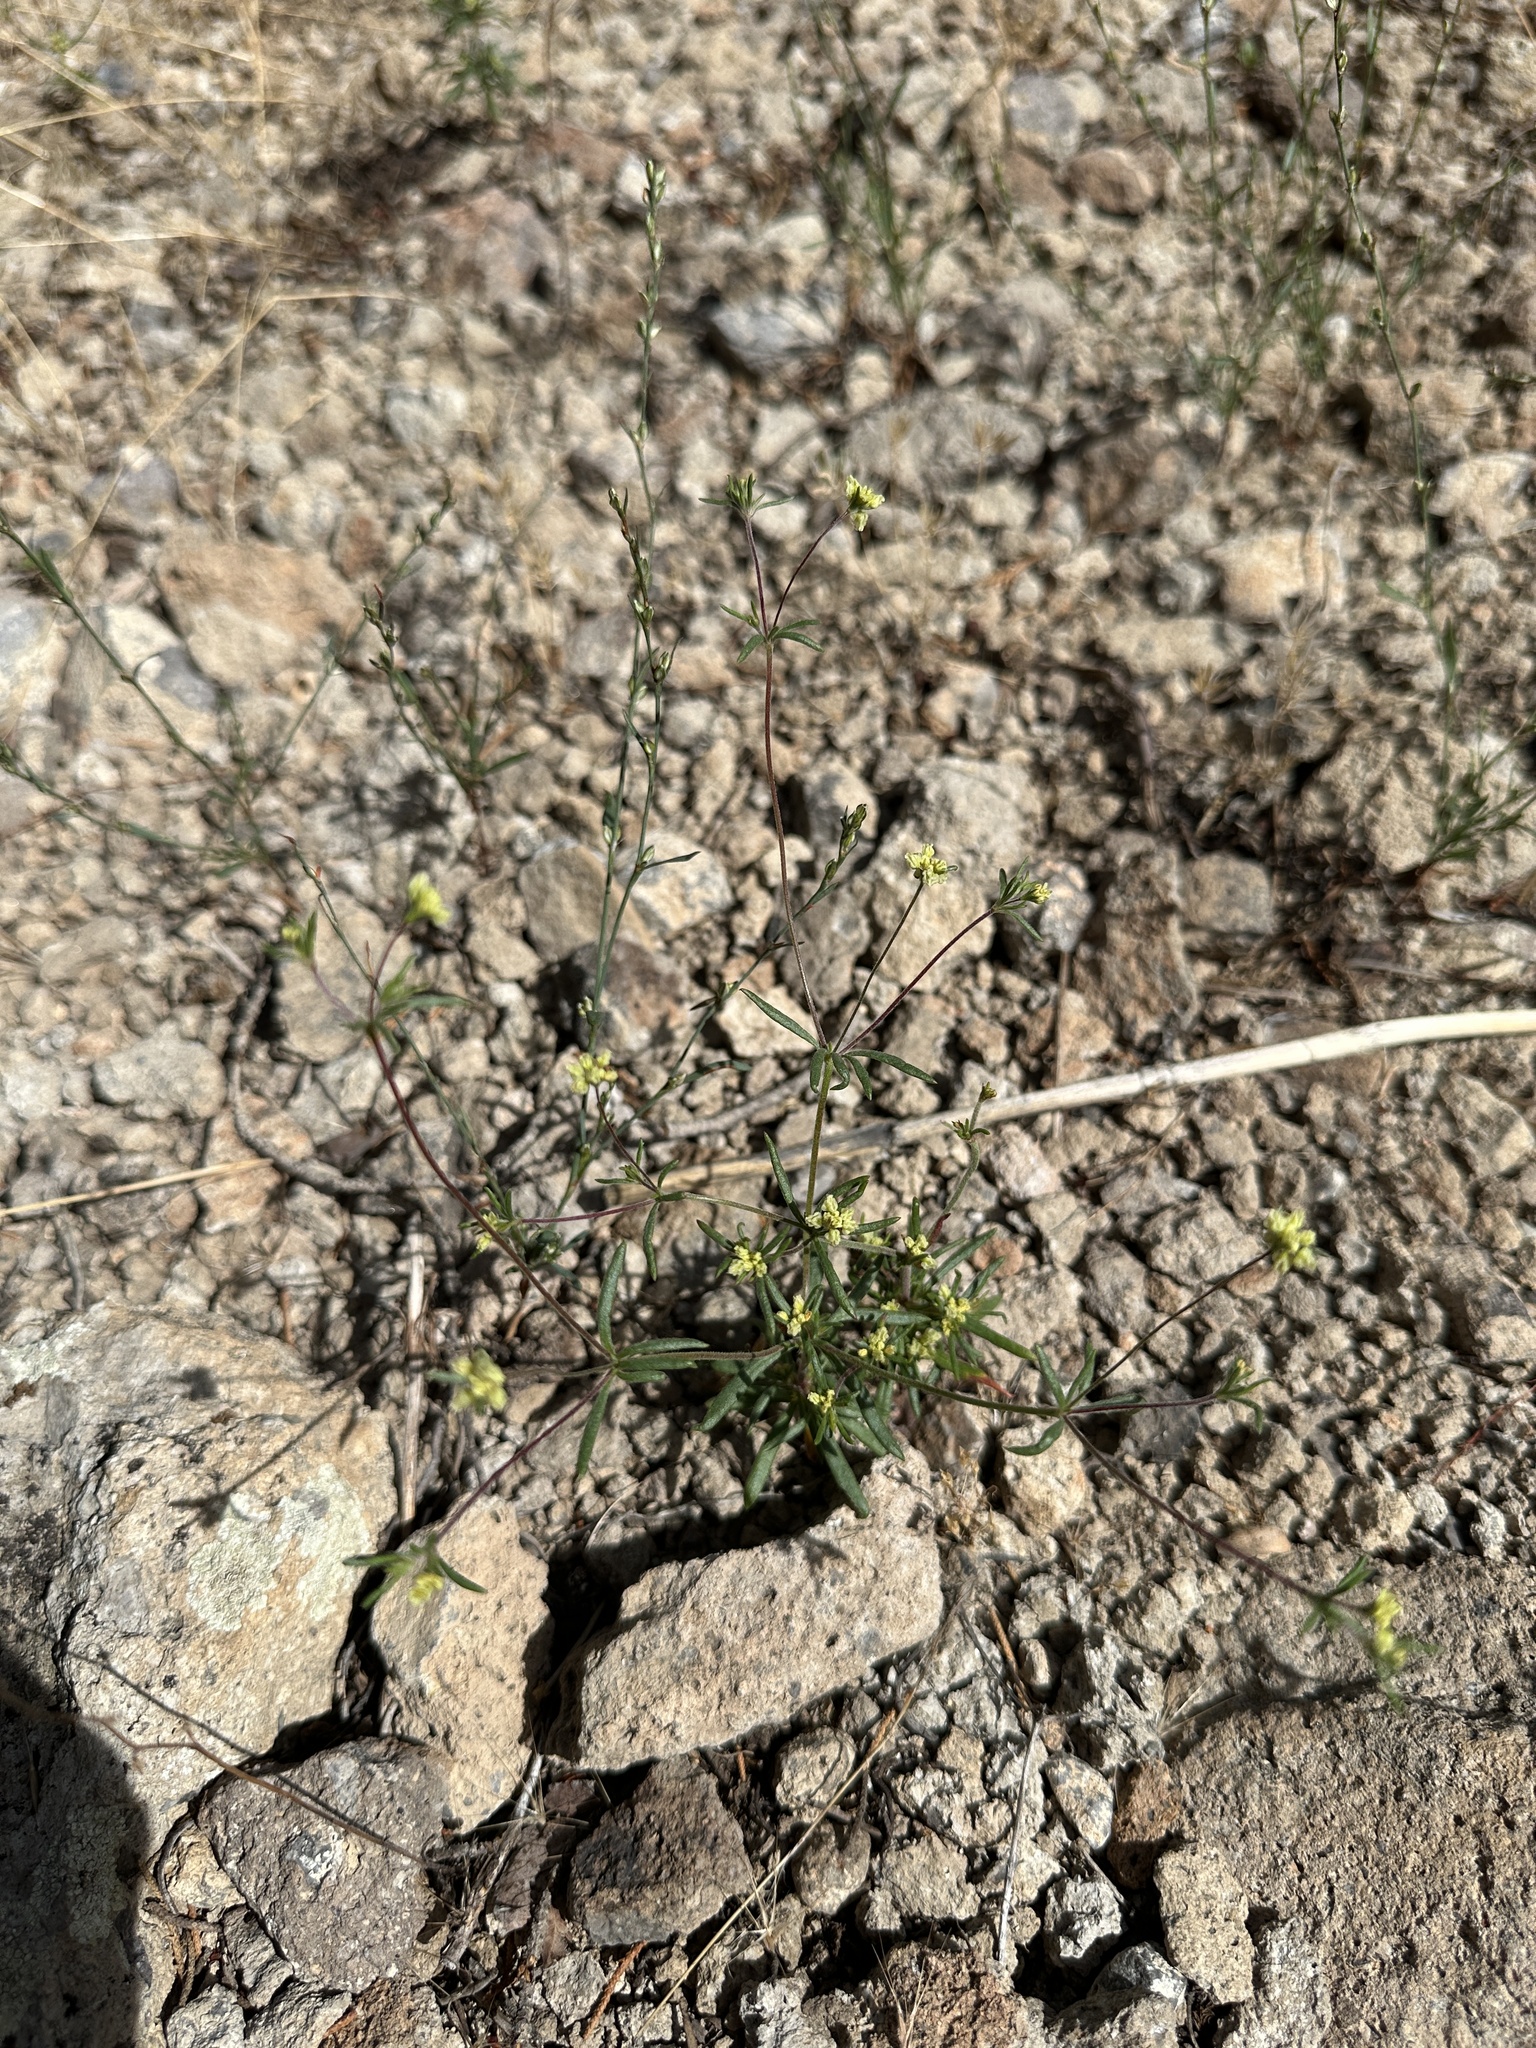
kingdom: Plantae
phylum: Tracheophyta
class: Magnoliopsida
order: Caryophyllales
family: Polygonaceae
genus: Eriogonum
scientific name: Eriogonum pharnaceoides
